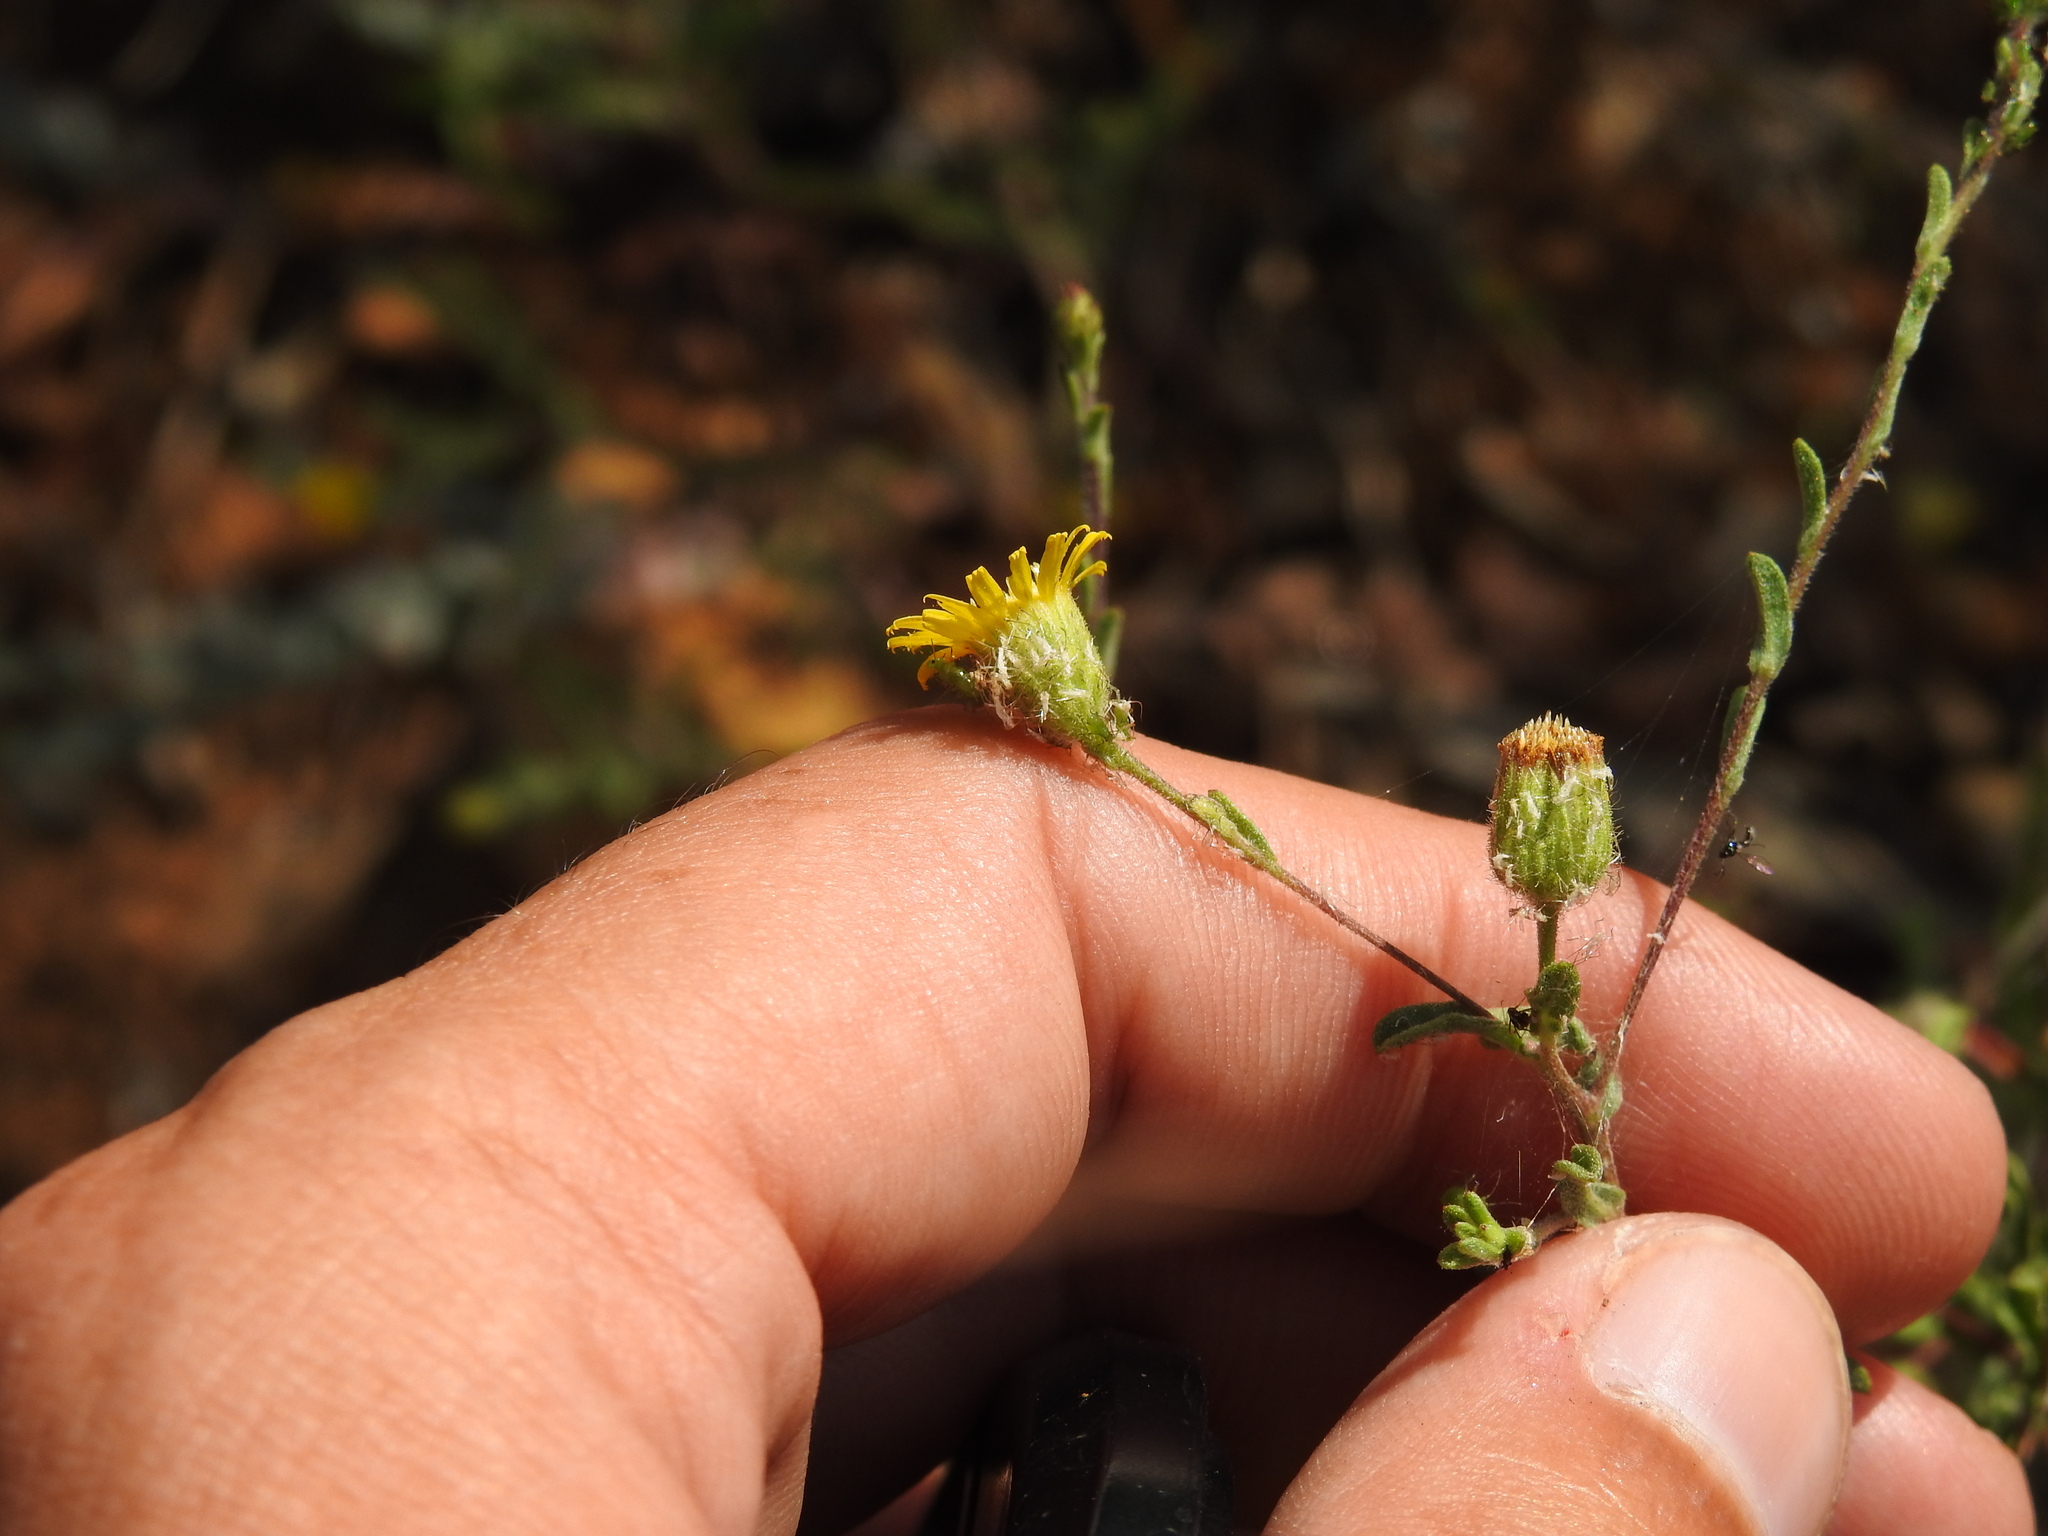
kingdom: Plantae
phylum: Tracheophyta
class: Magnoliopsida
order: Asterales
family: Asteraceae
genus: Pulicaria
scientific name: Pulicaria paludosa
